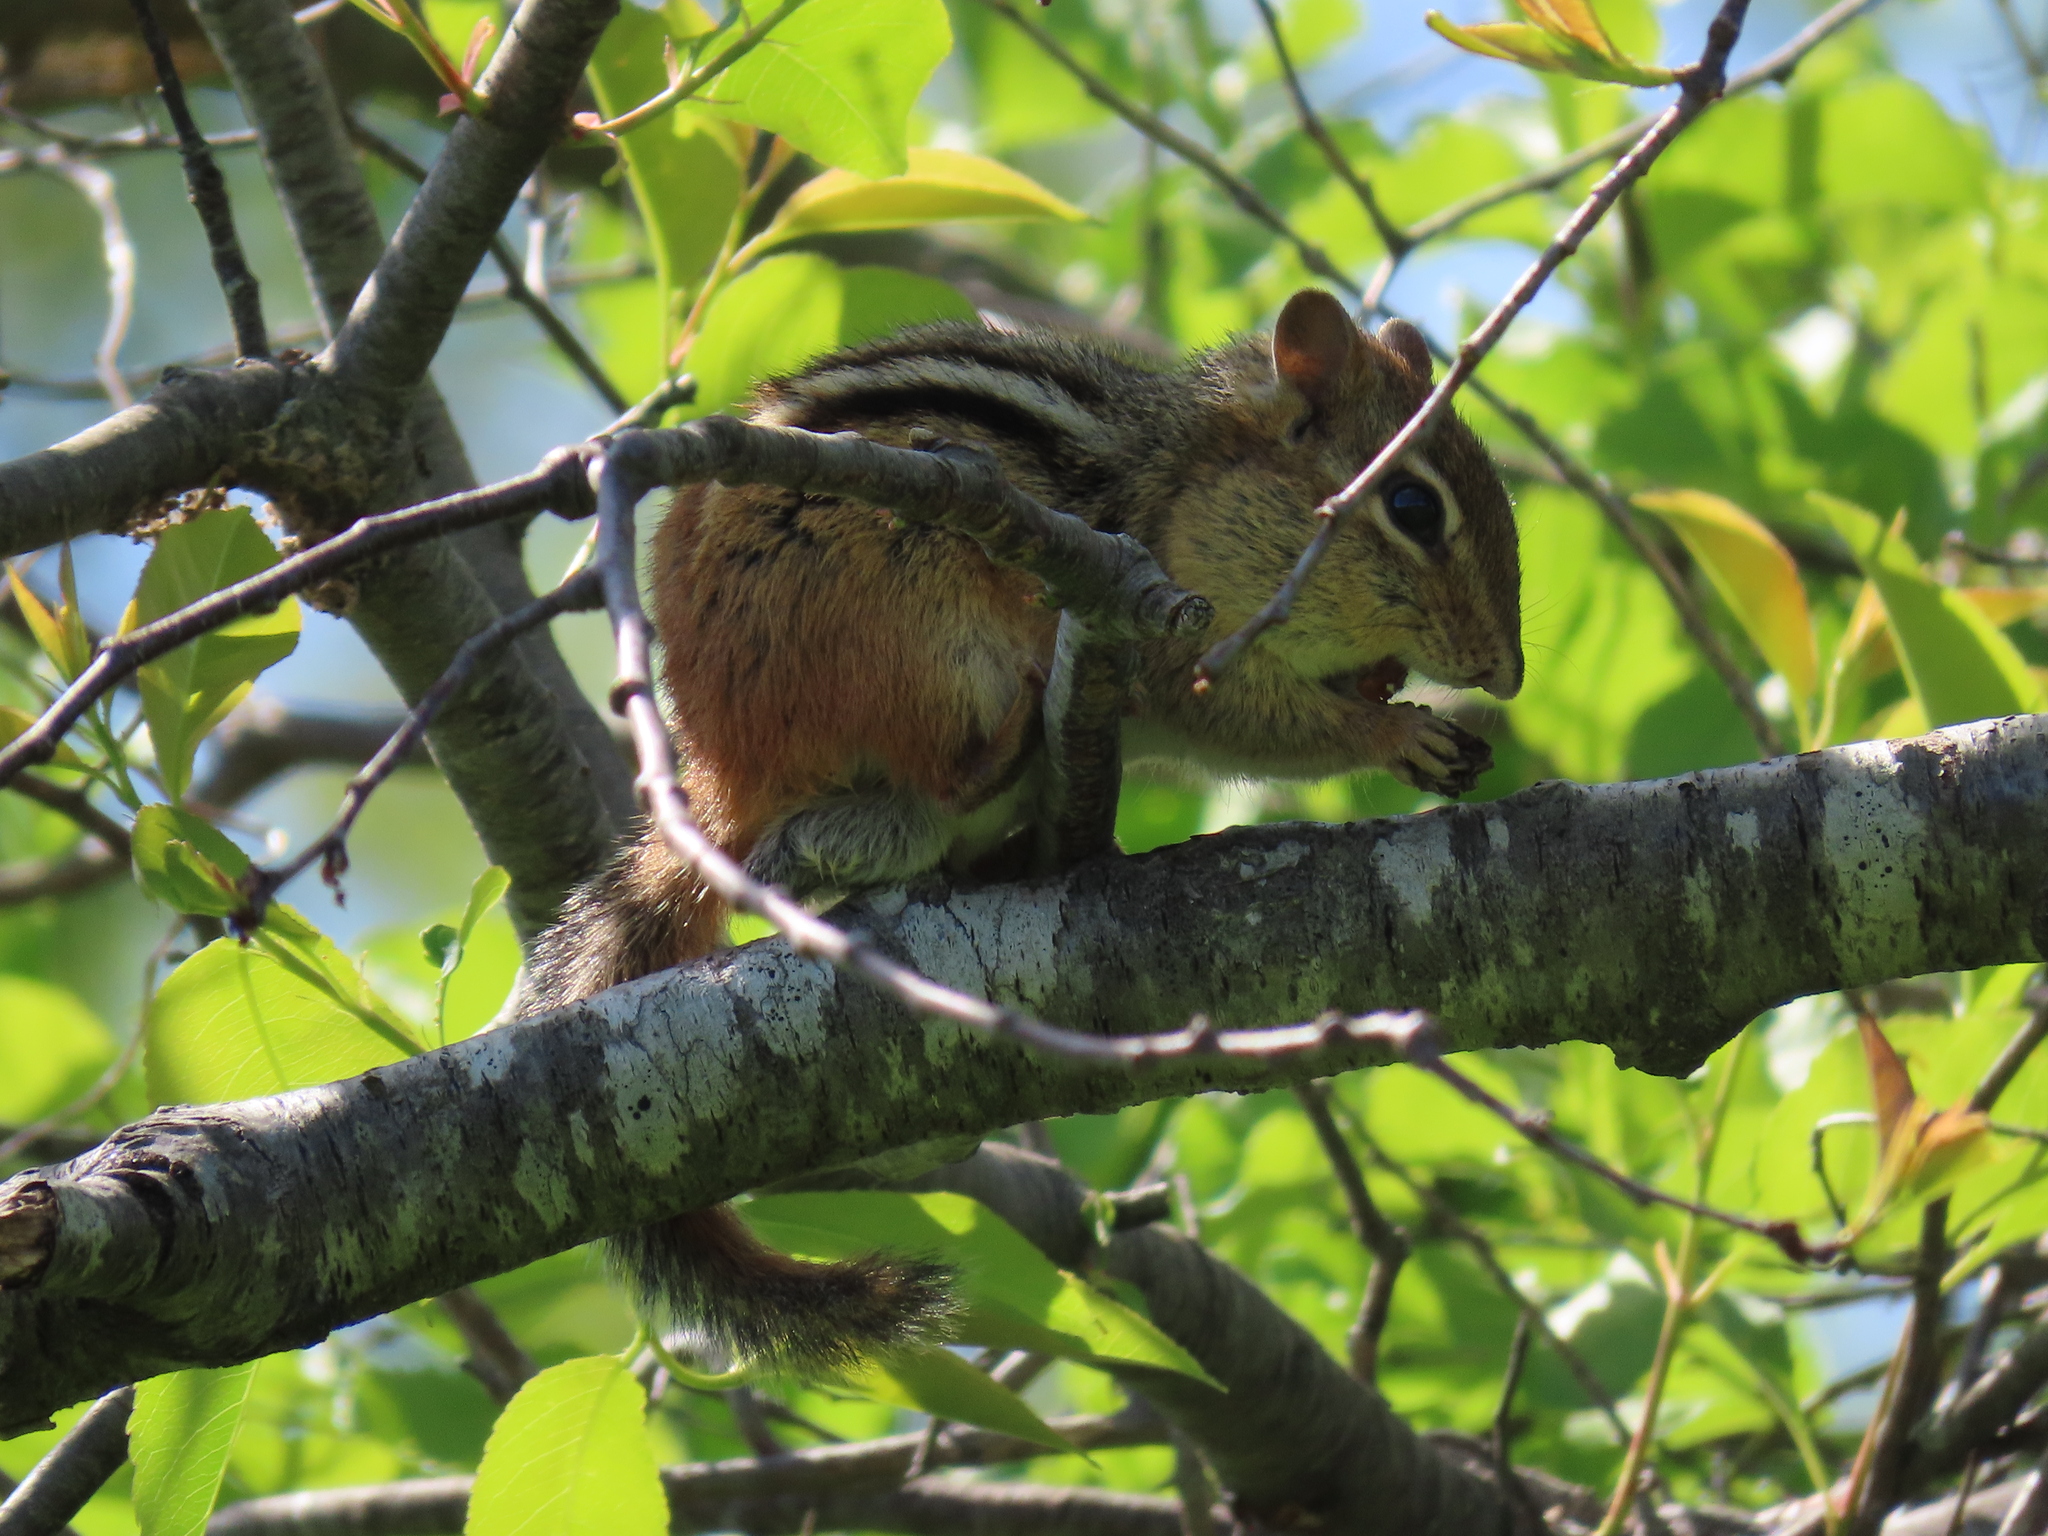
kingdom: Animalia
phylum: Chordata
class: Mammalia
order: Rodentia
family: Sciuridae
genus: Tamias
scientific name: Tamias striatus
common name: Eastern chipmunk
